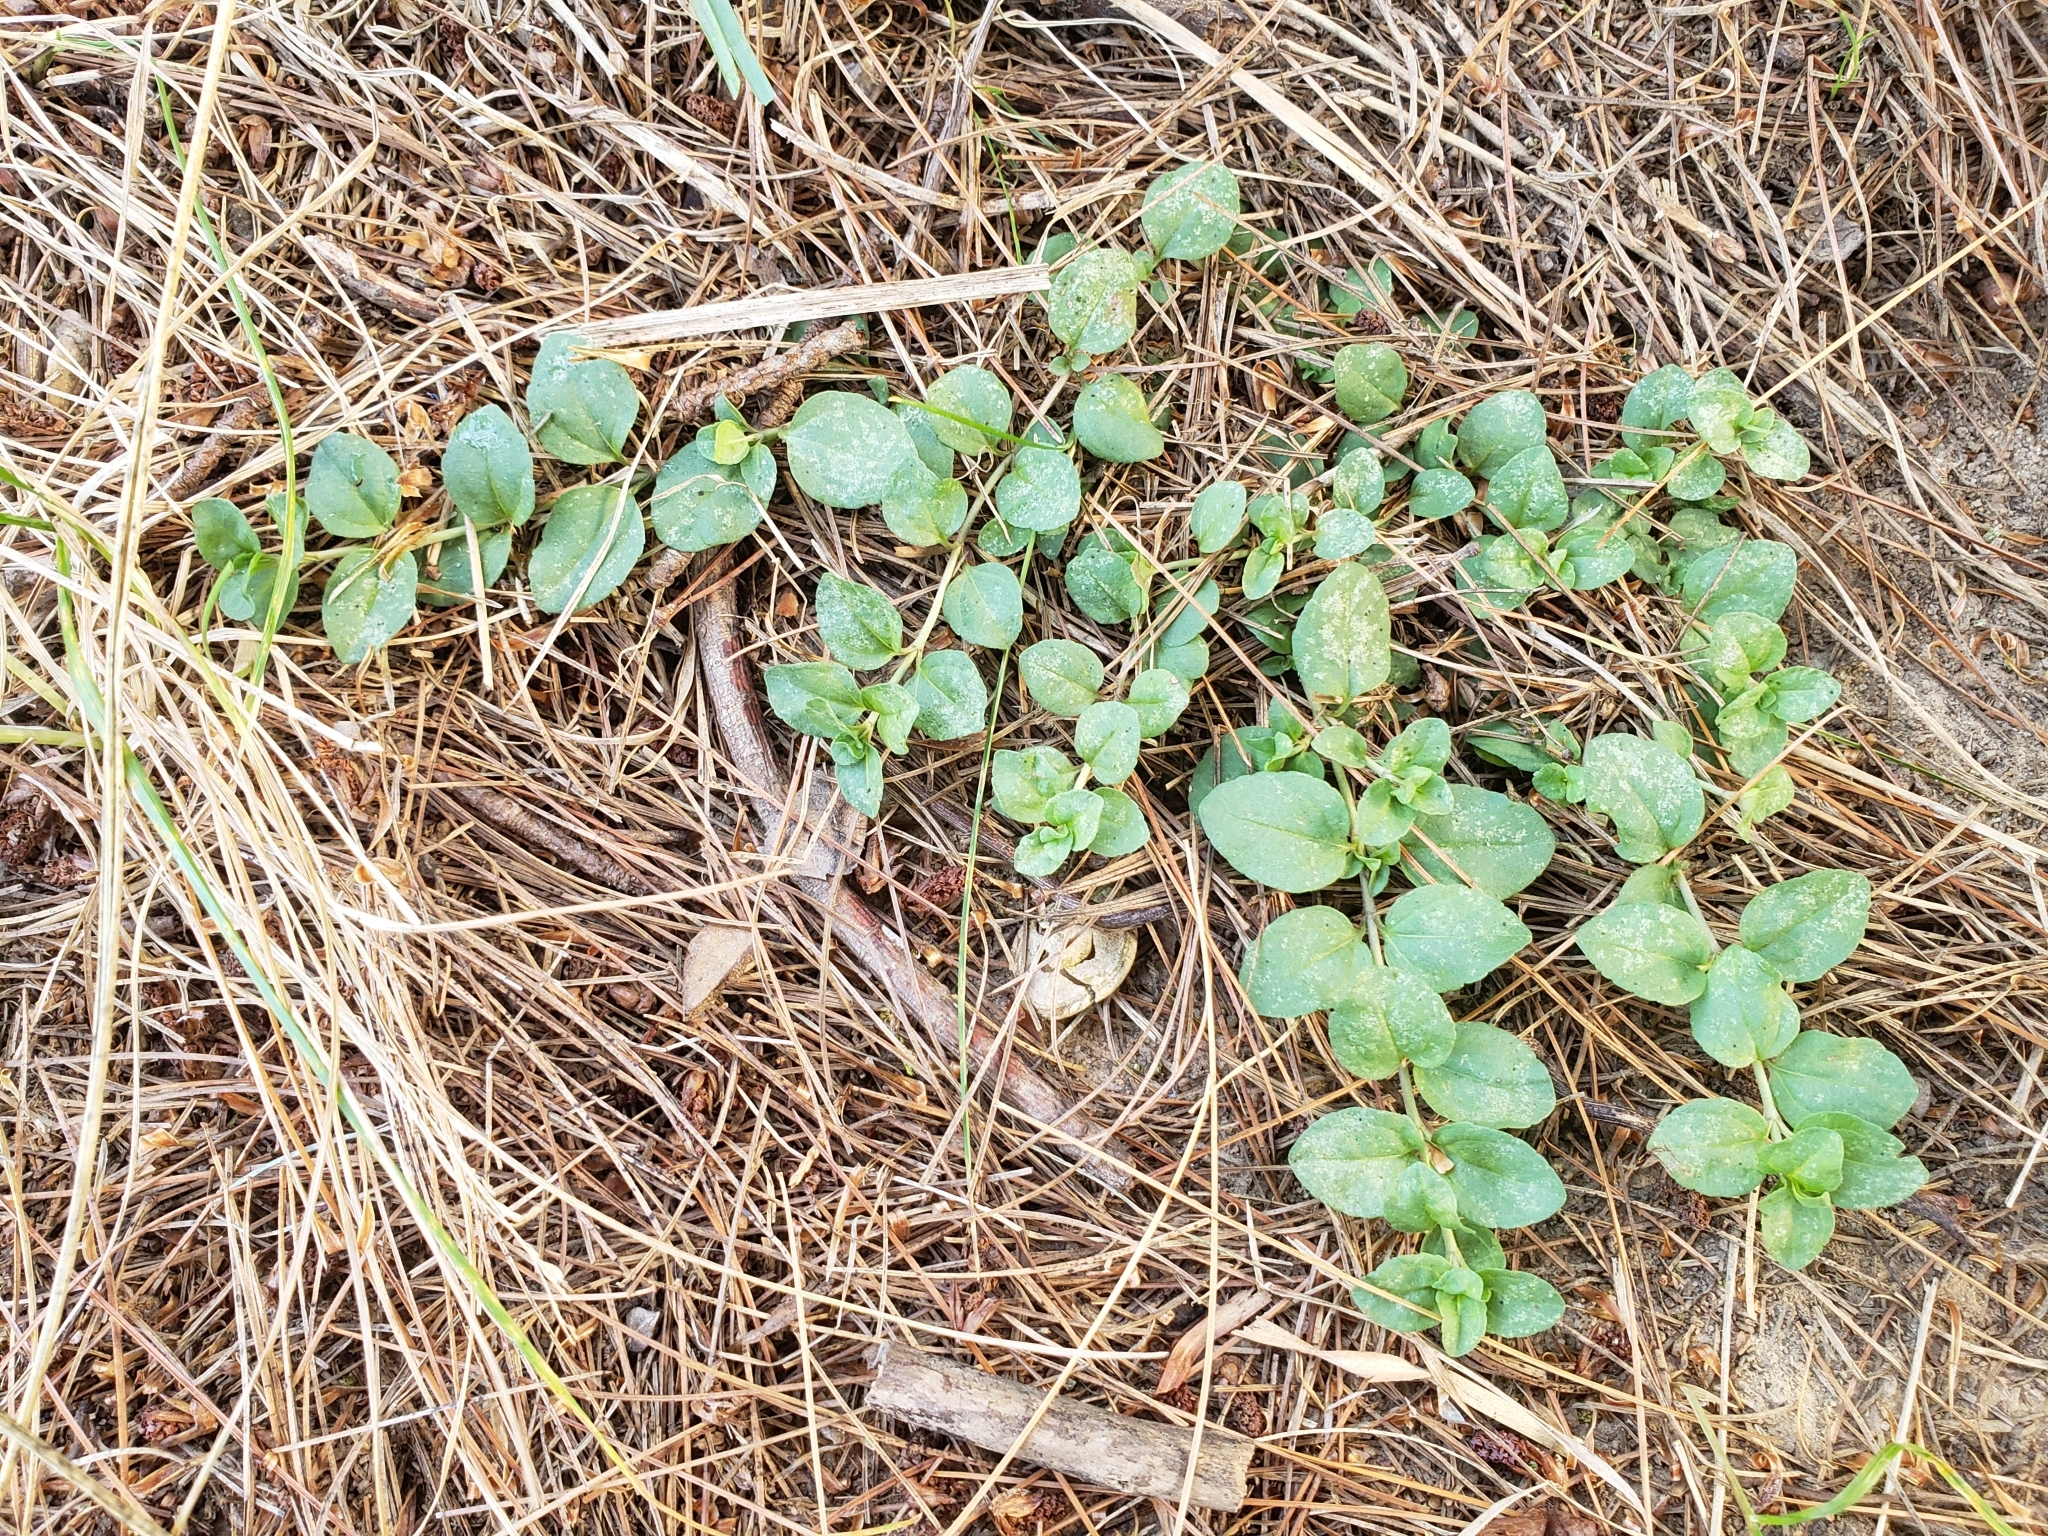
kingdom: Plantae
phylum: Tracheophyta
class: Magnoliopsida
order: Ericales
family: Primulaceae
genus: Lysimachia
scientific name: Lysimachia nummularia
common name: Moneywort
